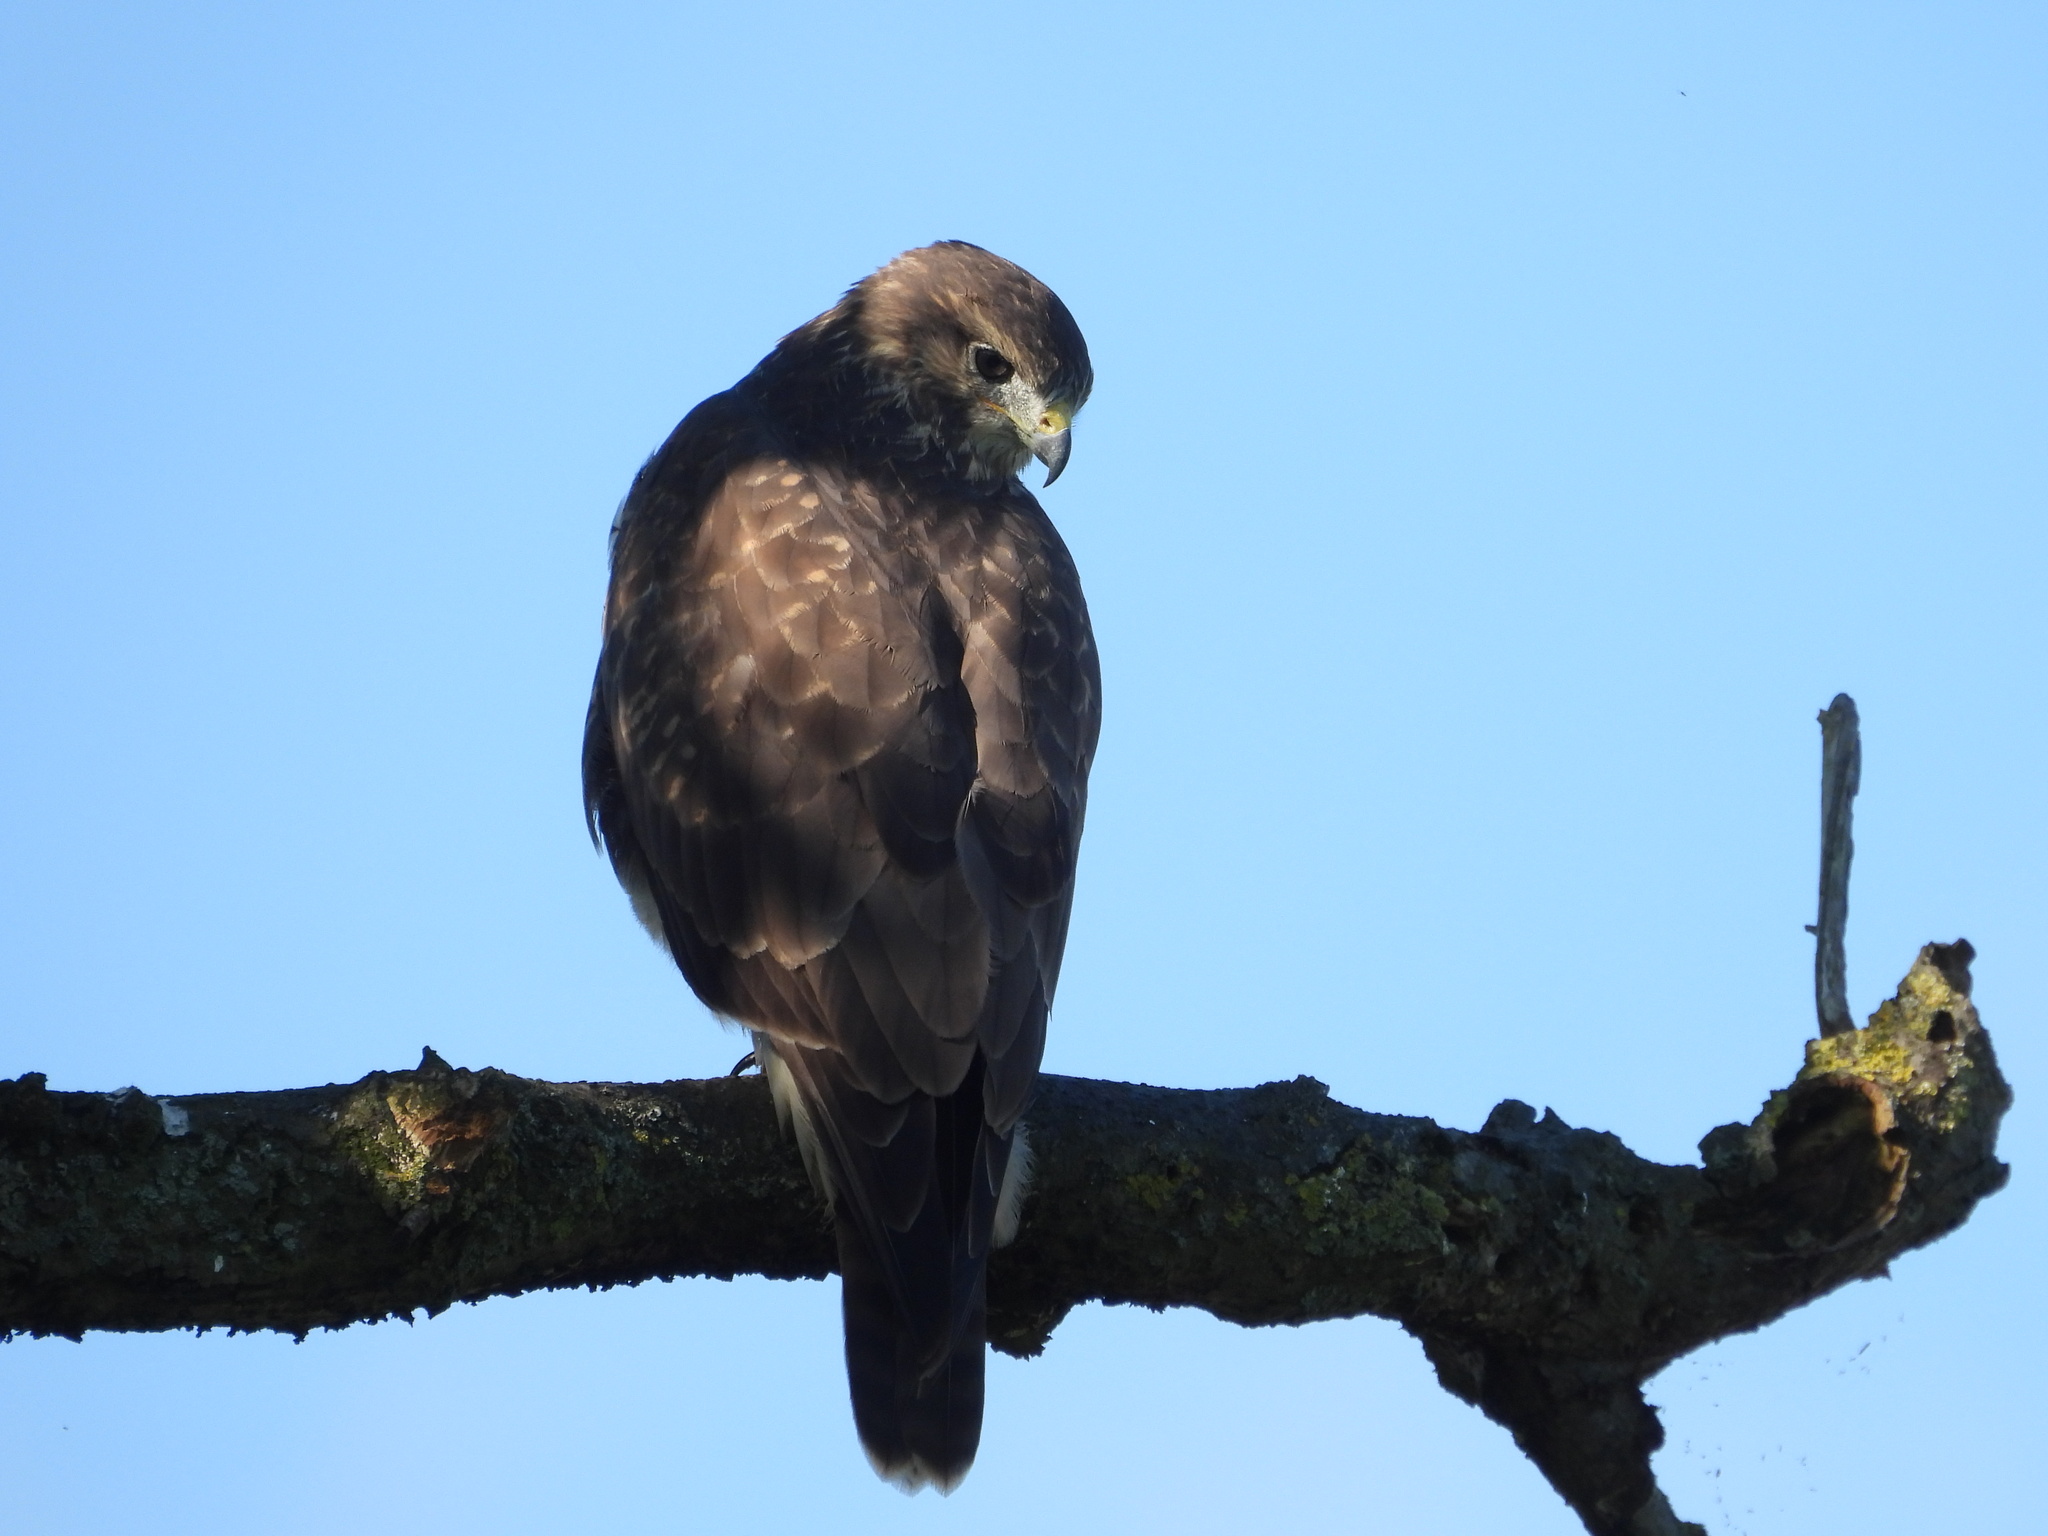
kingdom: Animalia
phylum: Chordata
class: Aves
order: Accipitriformes
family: Accipitridae
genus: Buteo
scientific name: Buteo buteo
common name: Common buzzard
